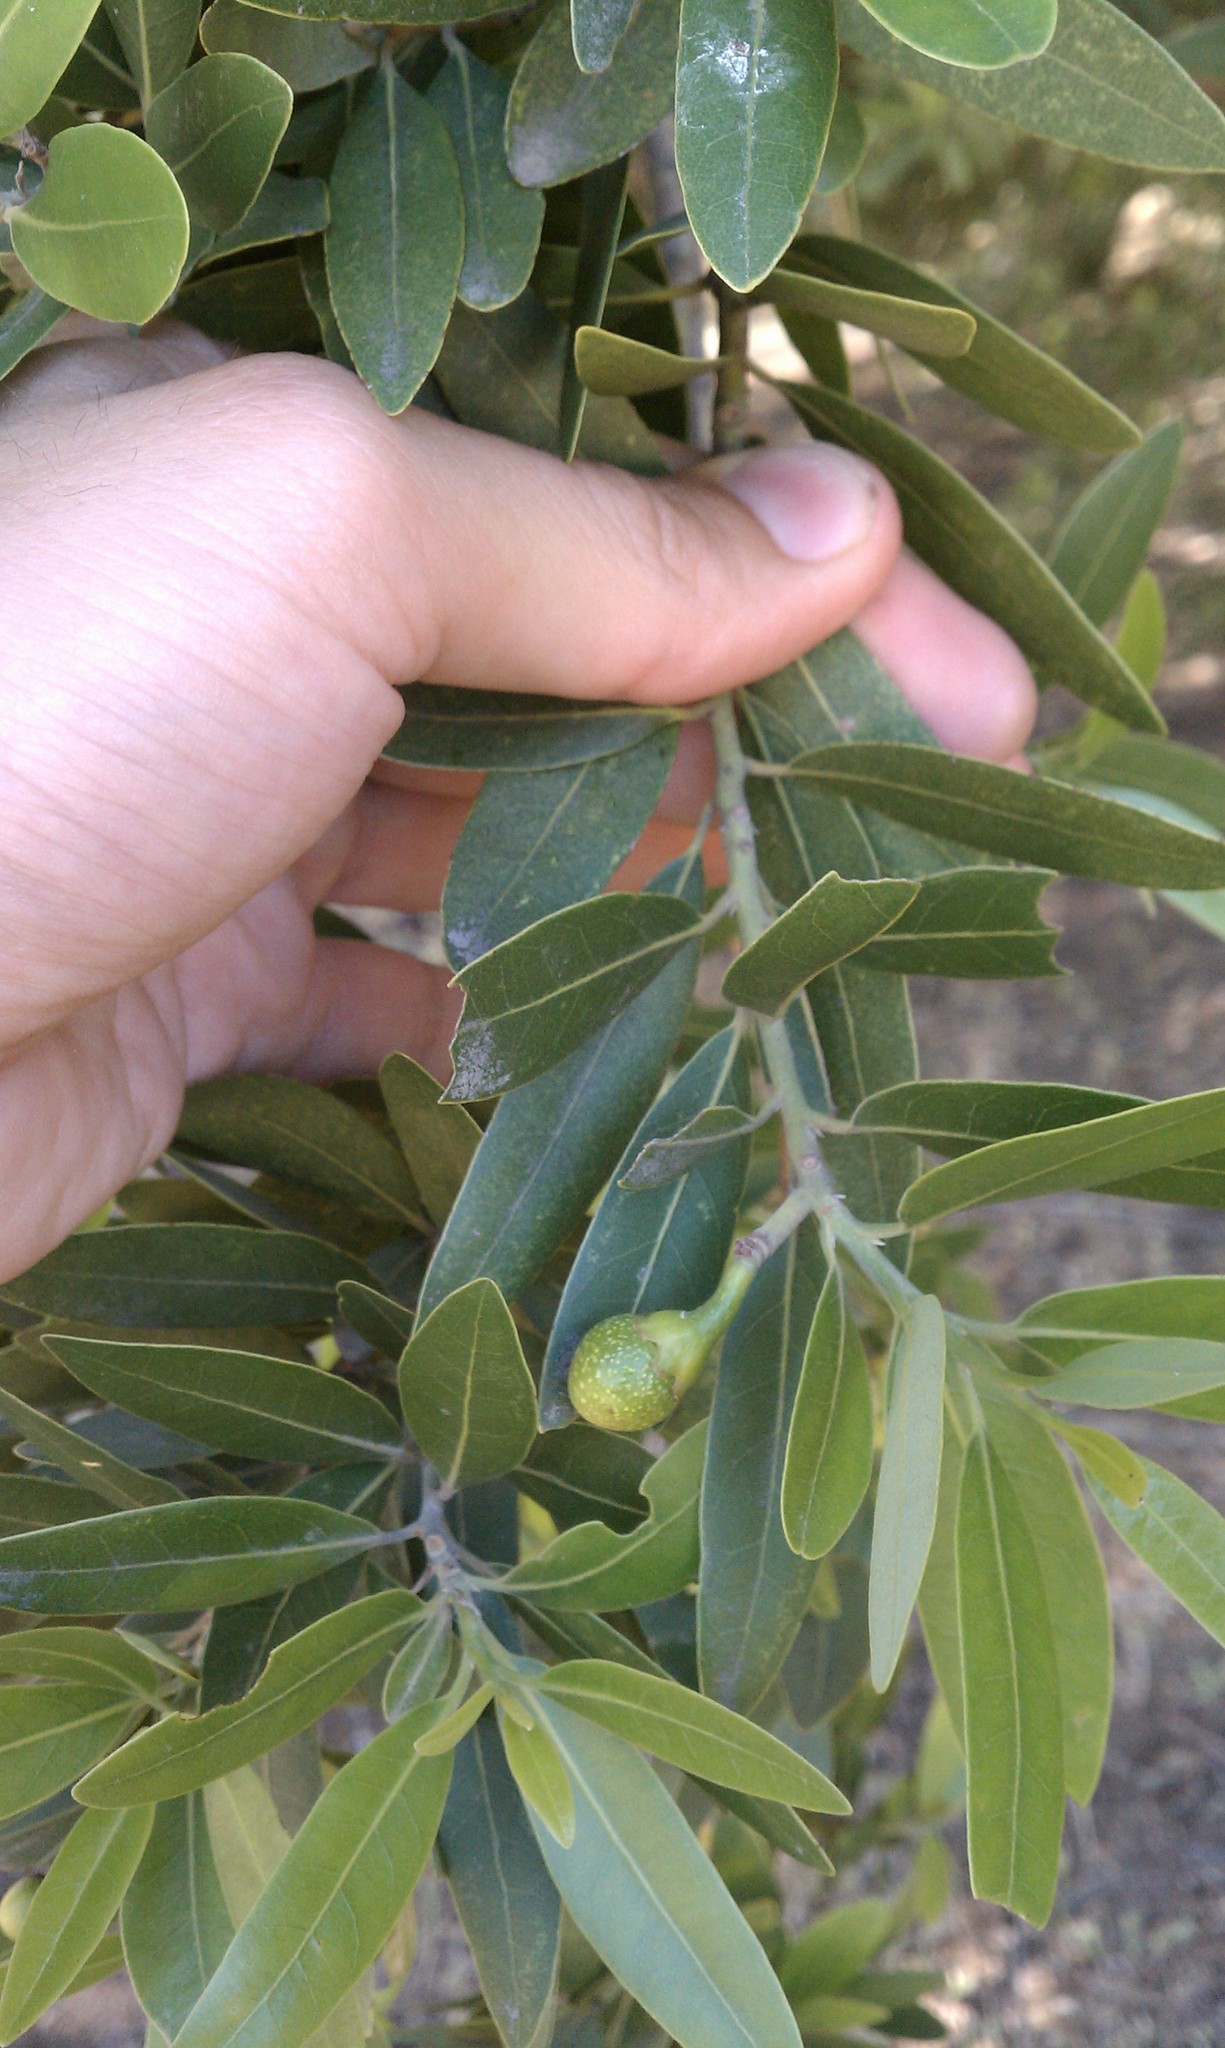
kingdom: Plantae
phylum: Tracheophyta
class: Magnoliopsida
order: Laurales
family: Lauraceae
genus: Umbellularia
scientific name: Umbellularia californica
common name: California bay
